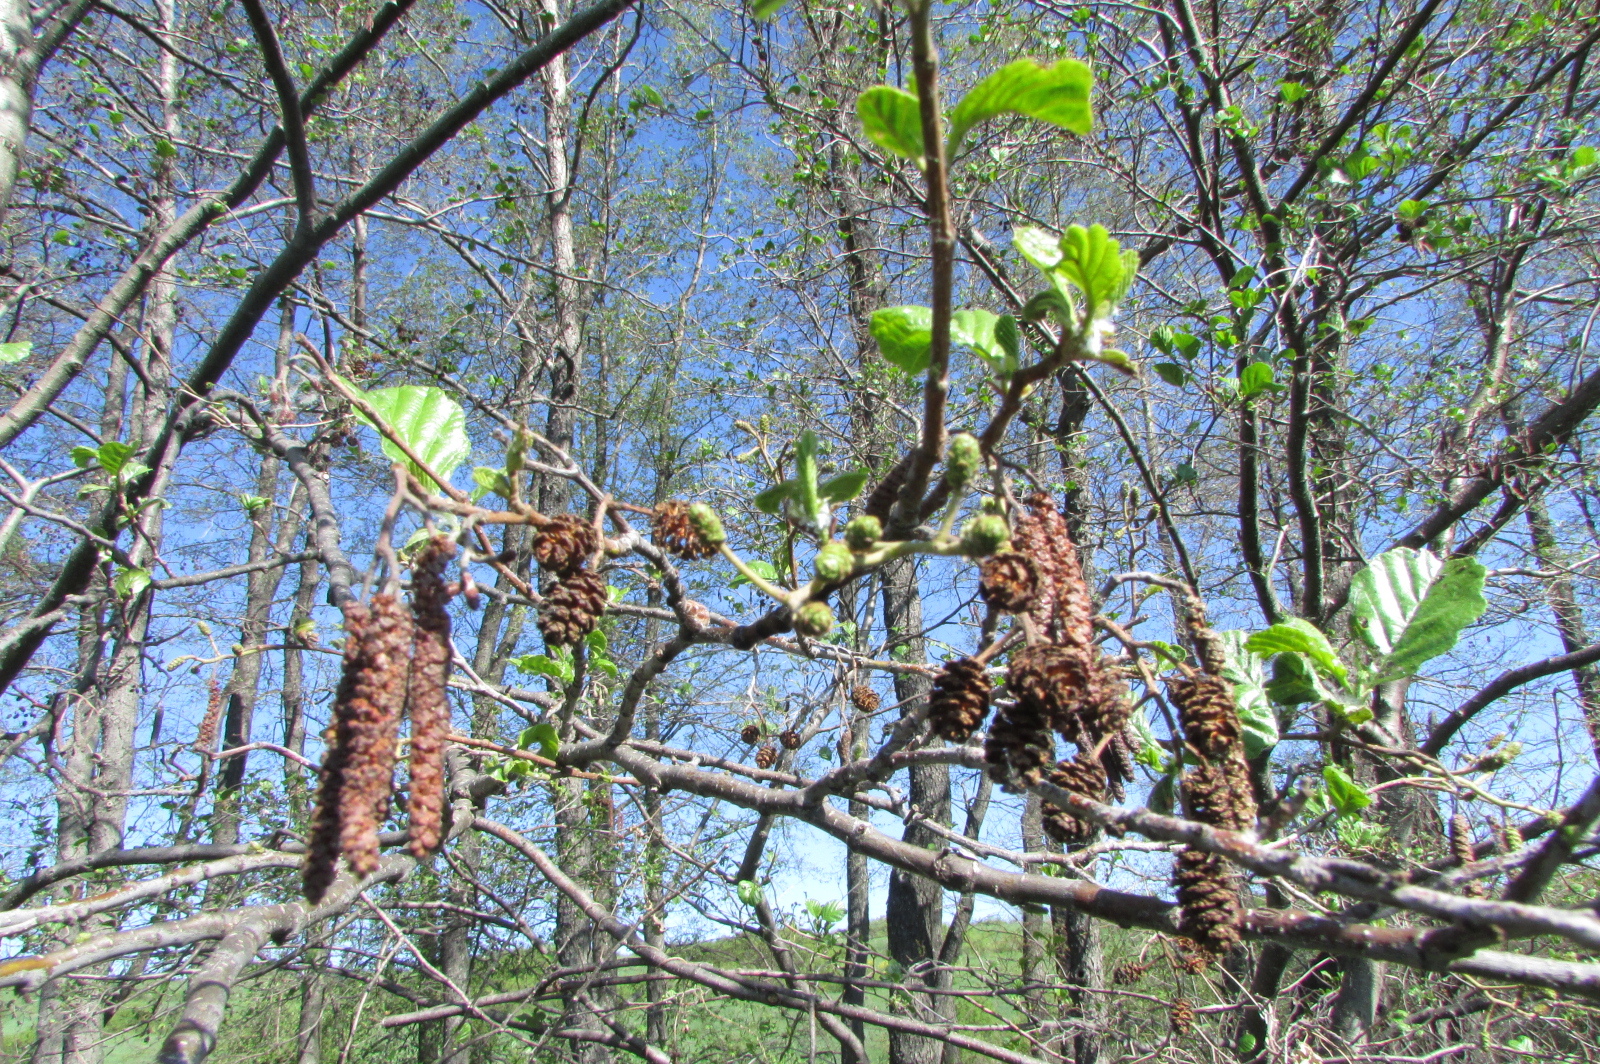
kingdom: Plantae
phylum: Tracheophyta
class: Magnoliopsida
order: Fagales
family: Betulaceae
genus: Alnus
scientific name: Alnus glutinosa
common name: Black alder
